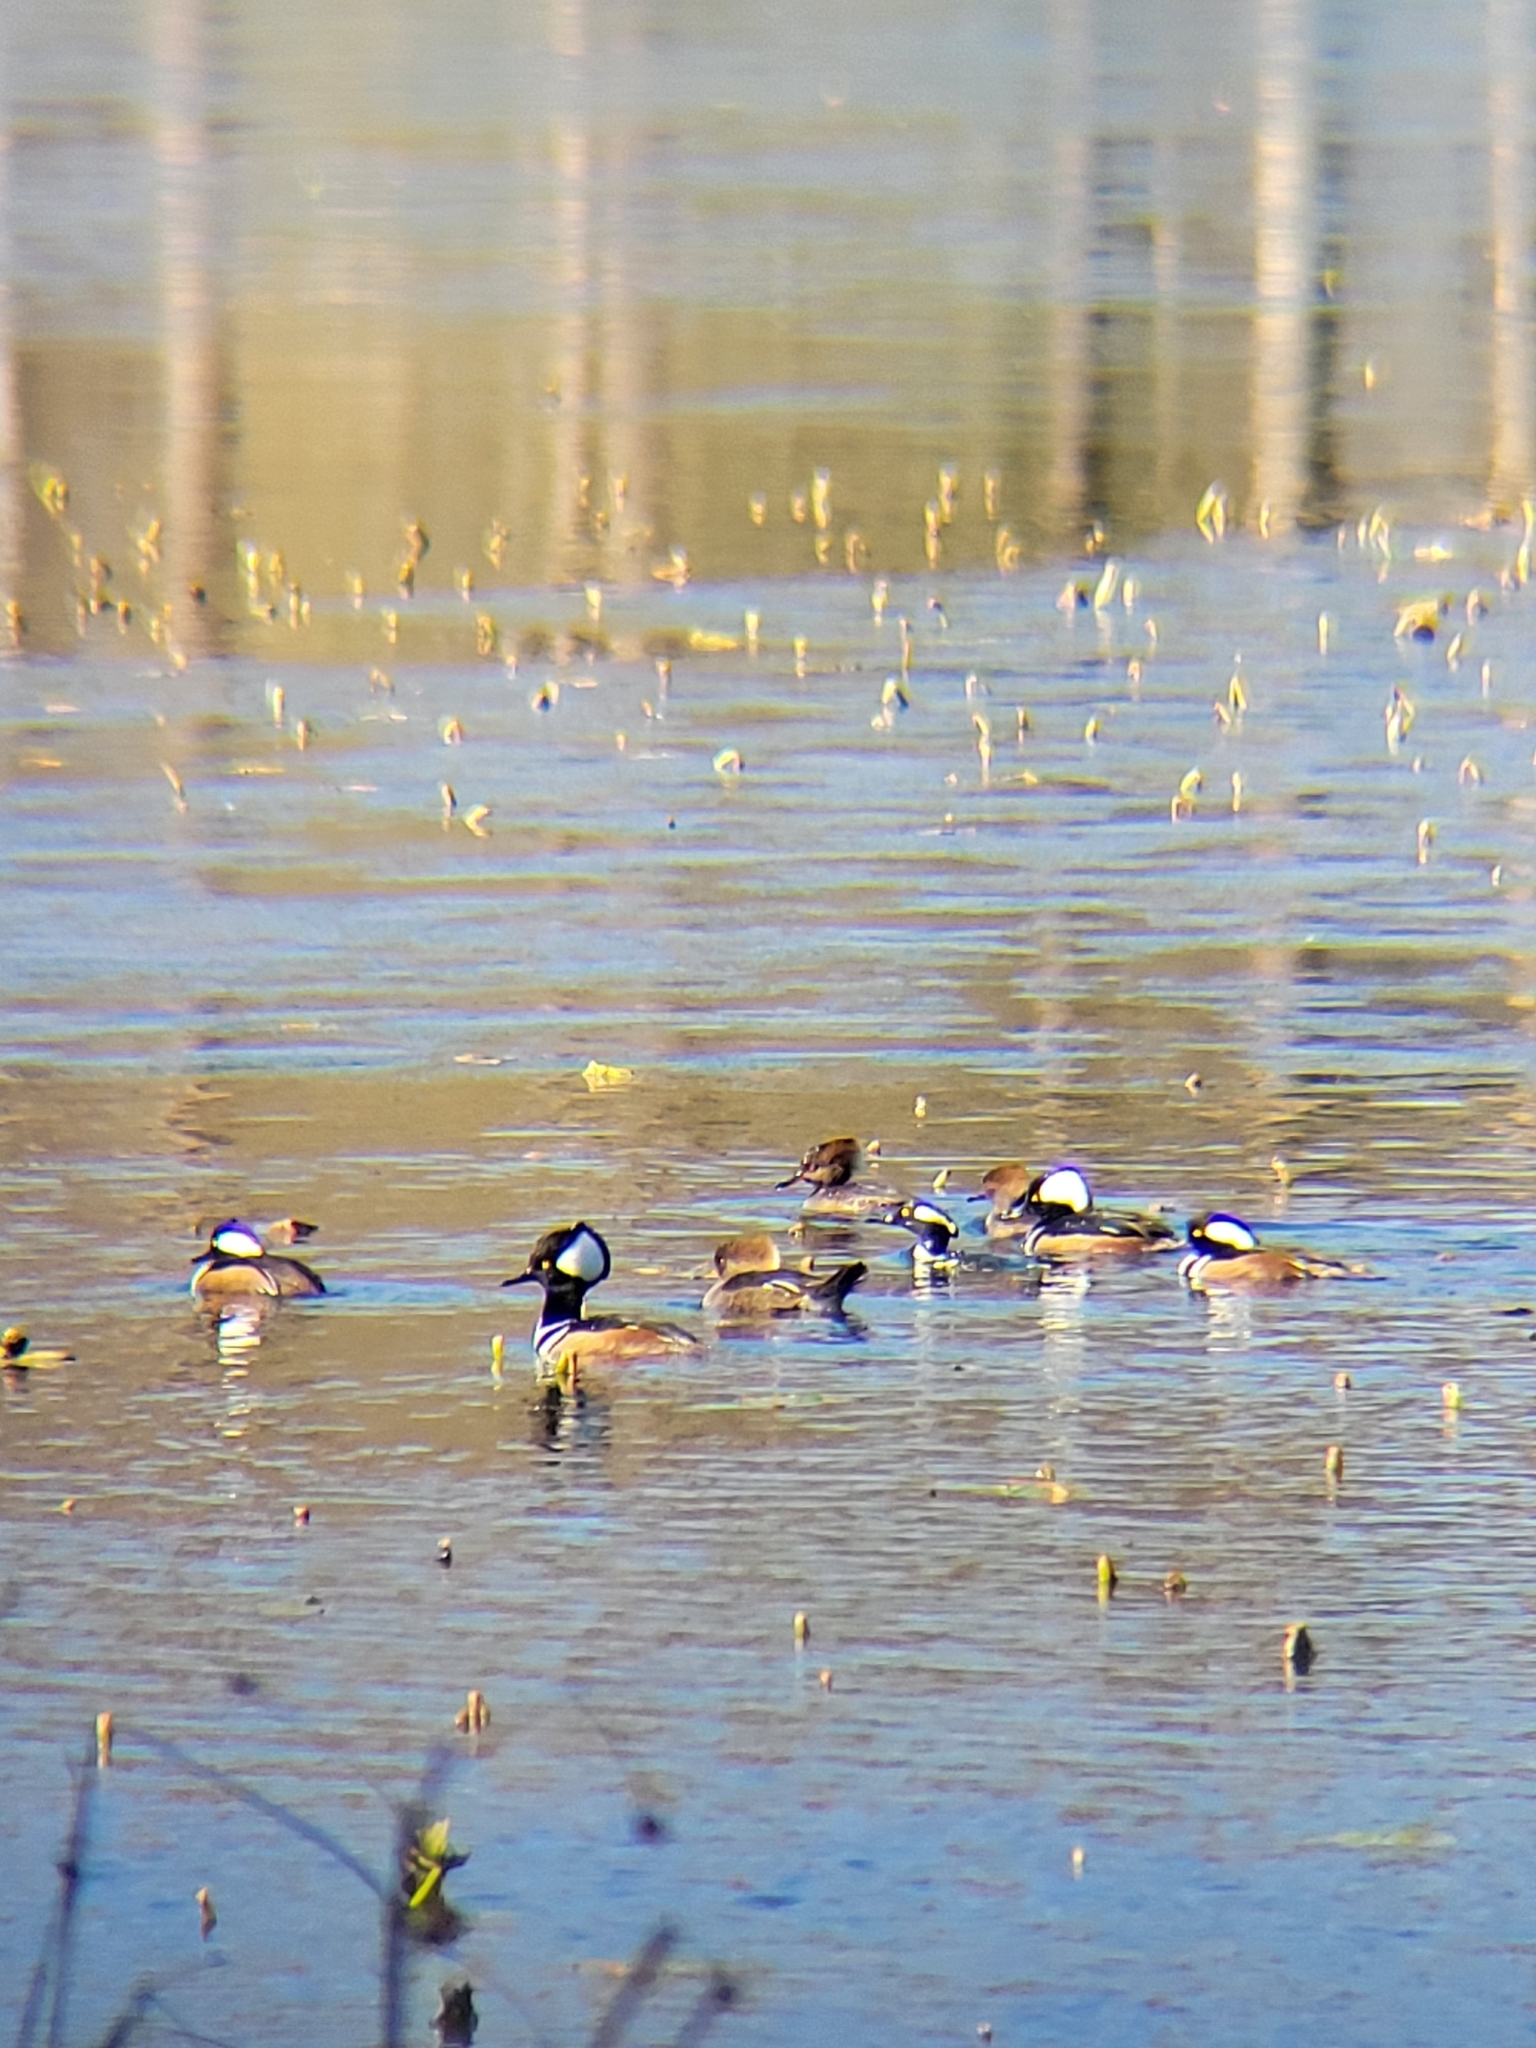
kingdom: Animalia
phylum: Chordata
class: Aves
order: Anseriformes
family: Anatidae
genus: Lophodytes
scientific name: Lophodytes cucullatus
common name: Hooded merganser
